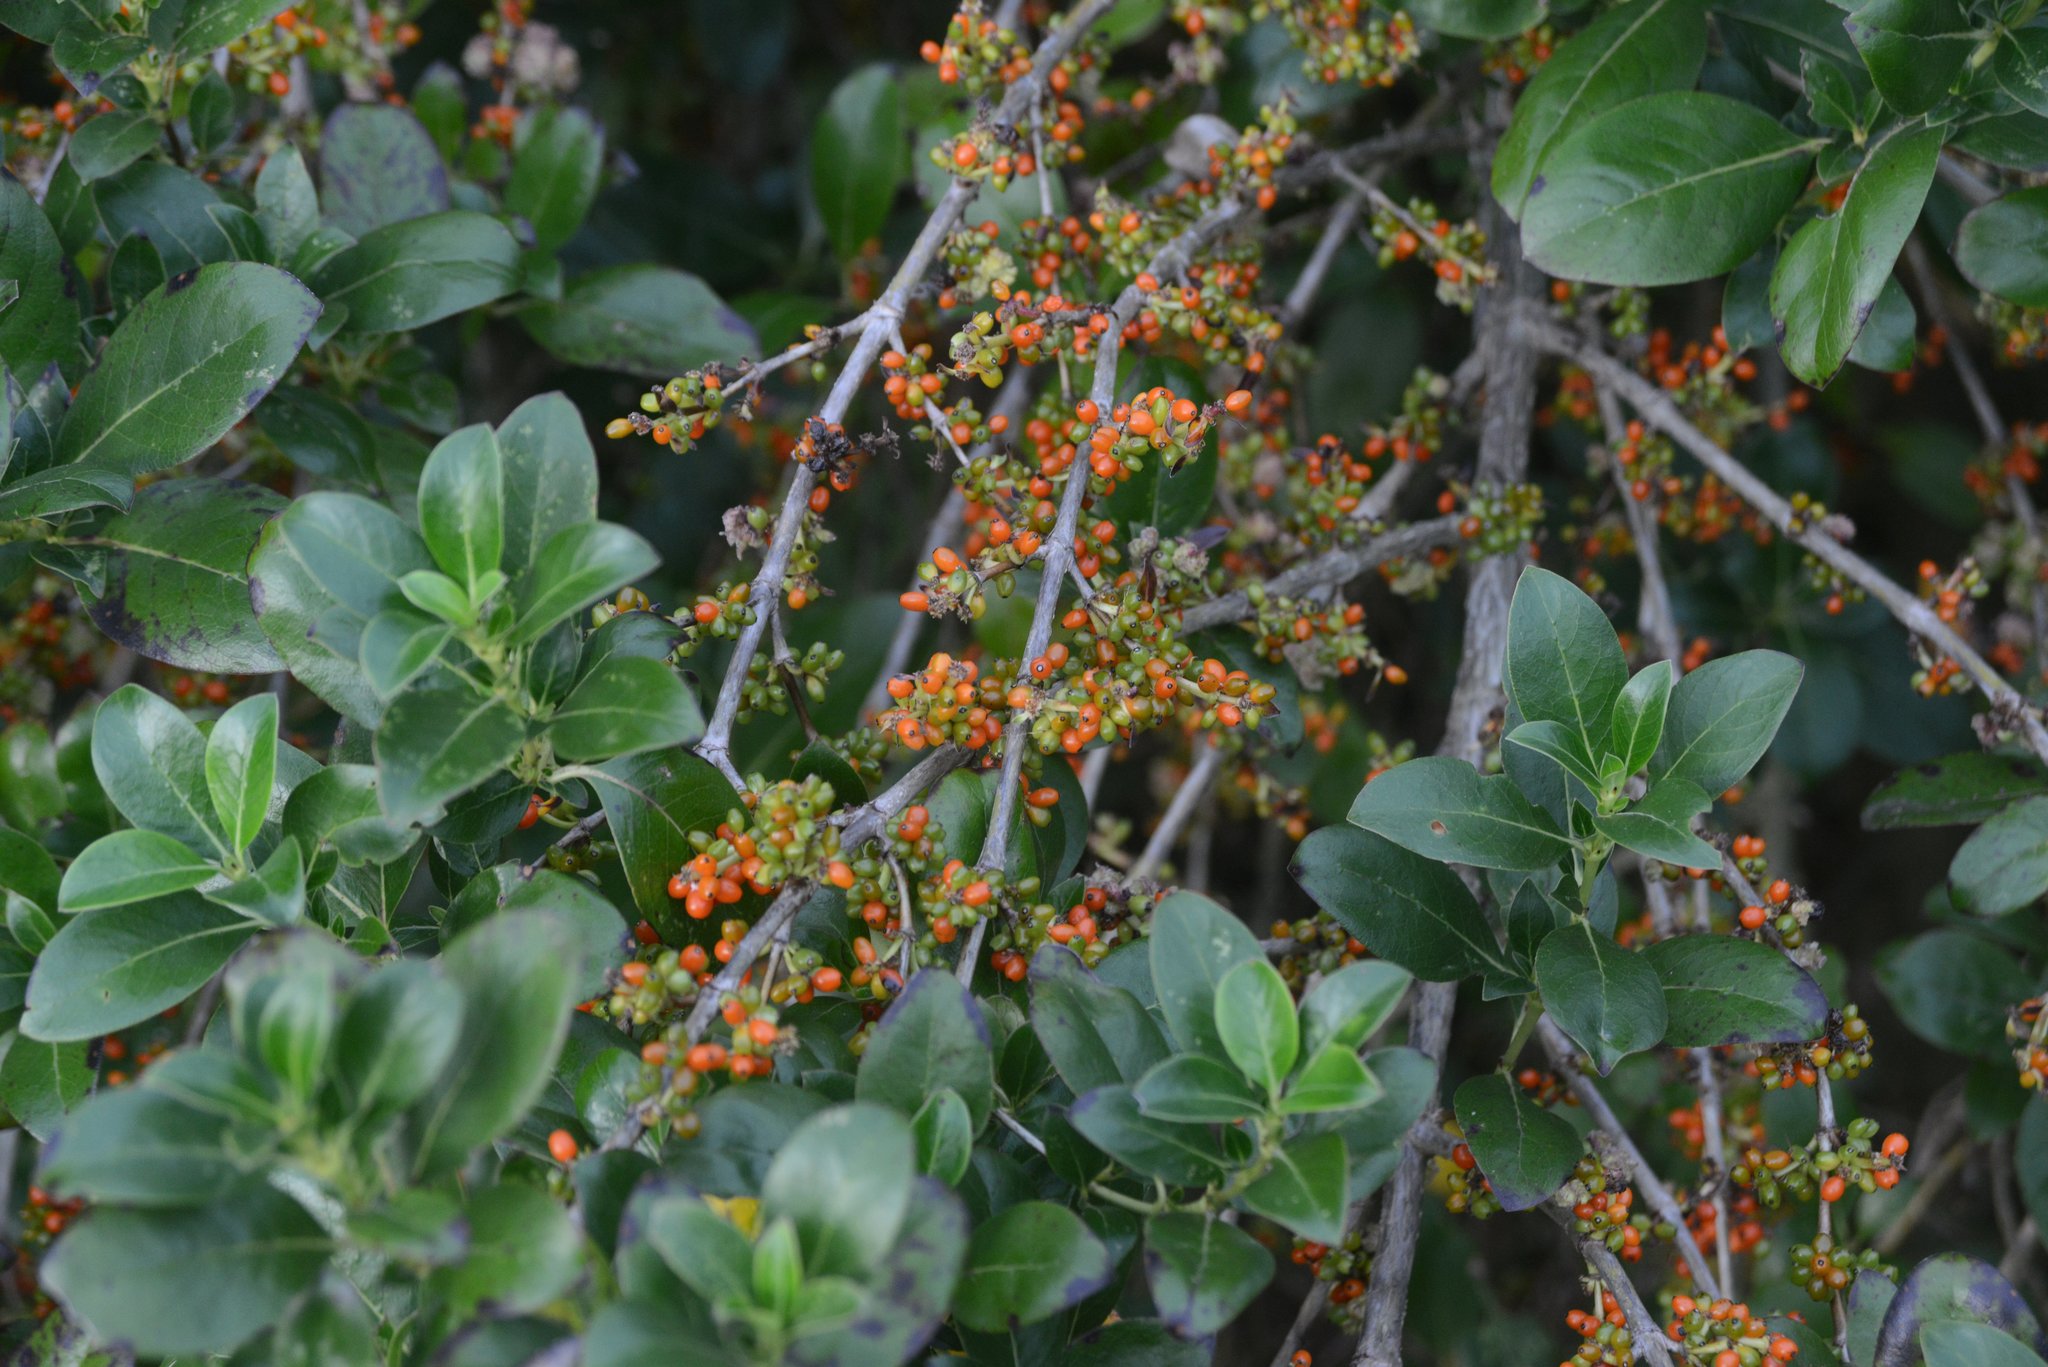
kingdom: Plantae
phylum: Tracheophyta
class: Magnoliopsida
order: Gentianales
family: Rubiaceae
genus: Coprosma
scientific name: Coprosma robusta
